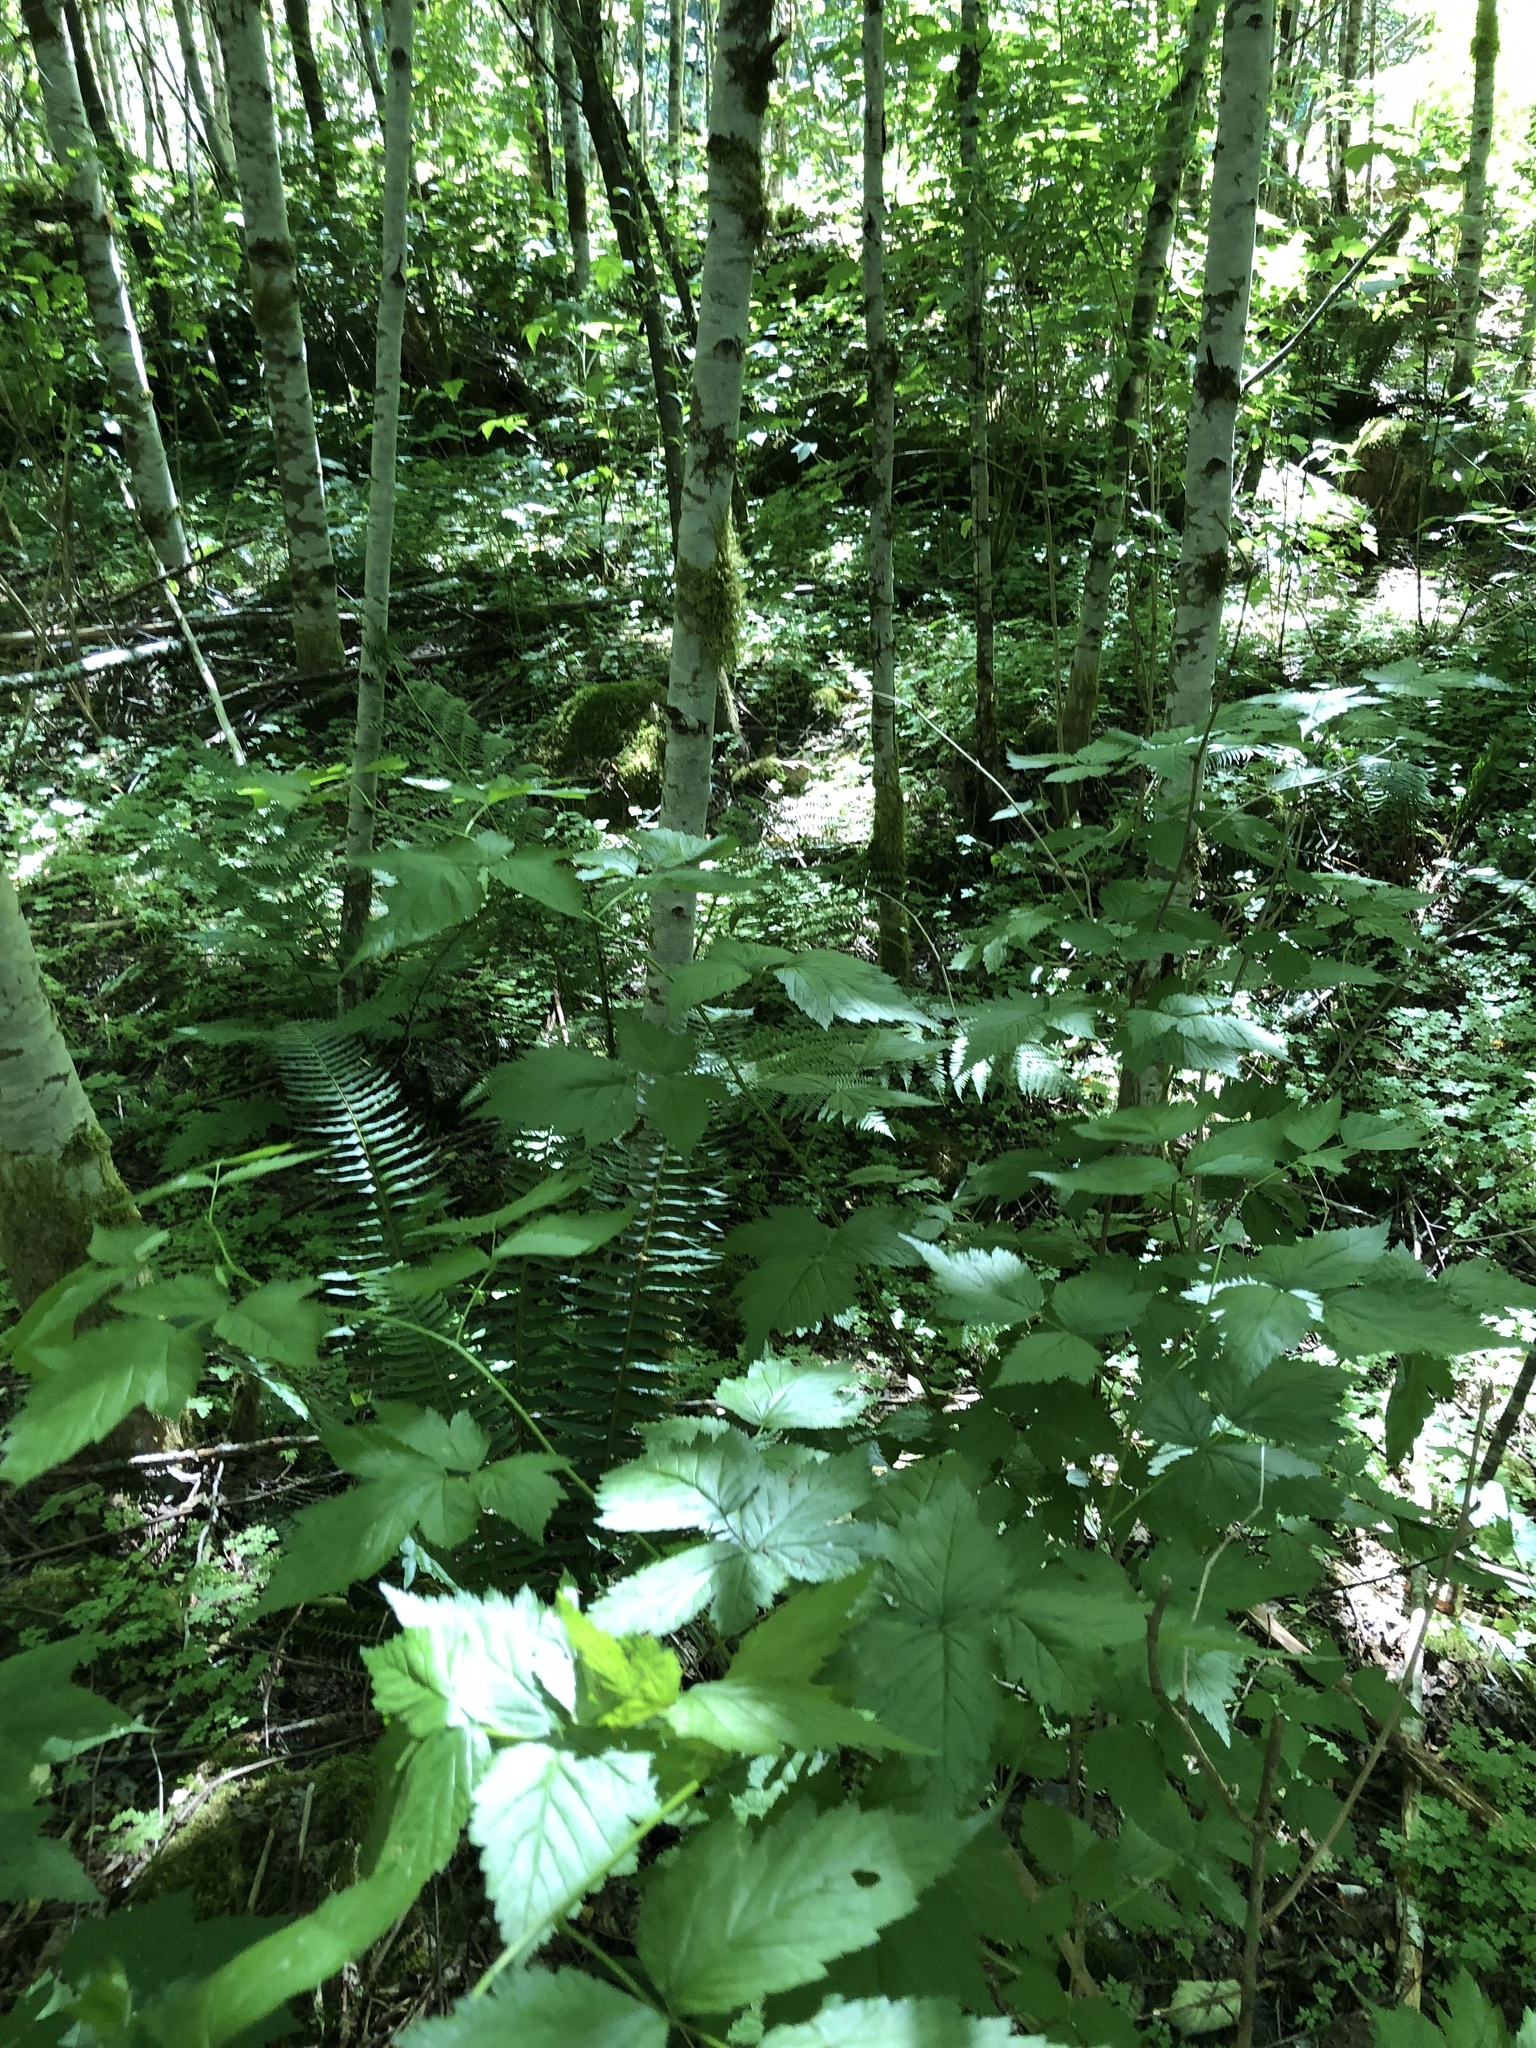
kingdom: Plantae
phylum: Tracheophyta
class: Magnoliopsida
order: Rosales
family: Rosaceae
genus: Rubus
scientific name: Rubus spectabilis
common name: Salmonberry
